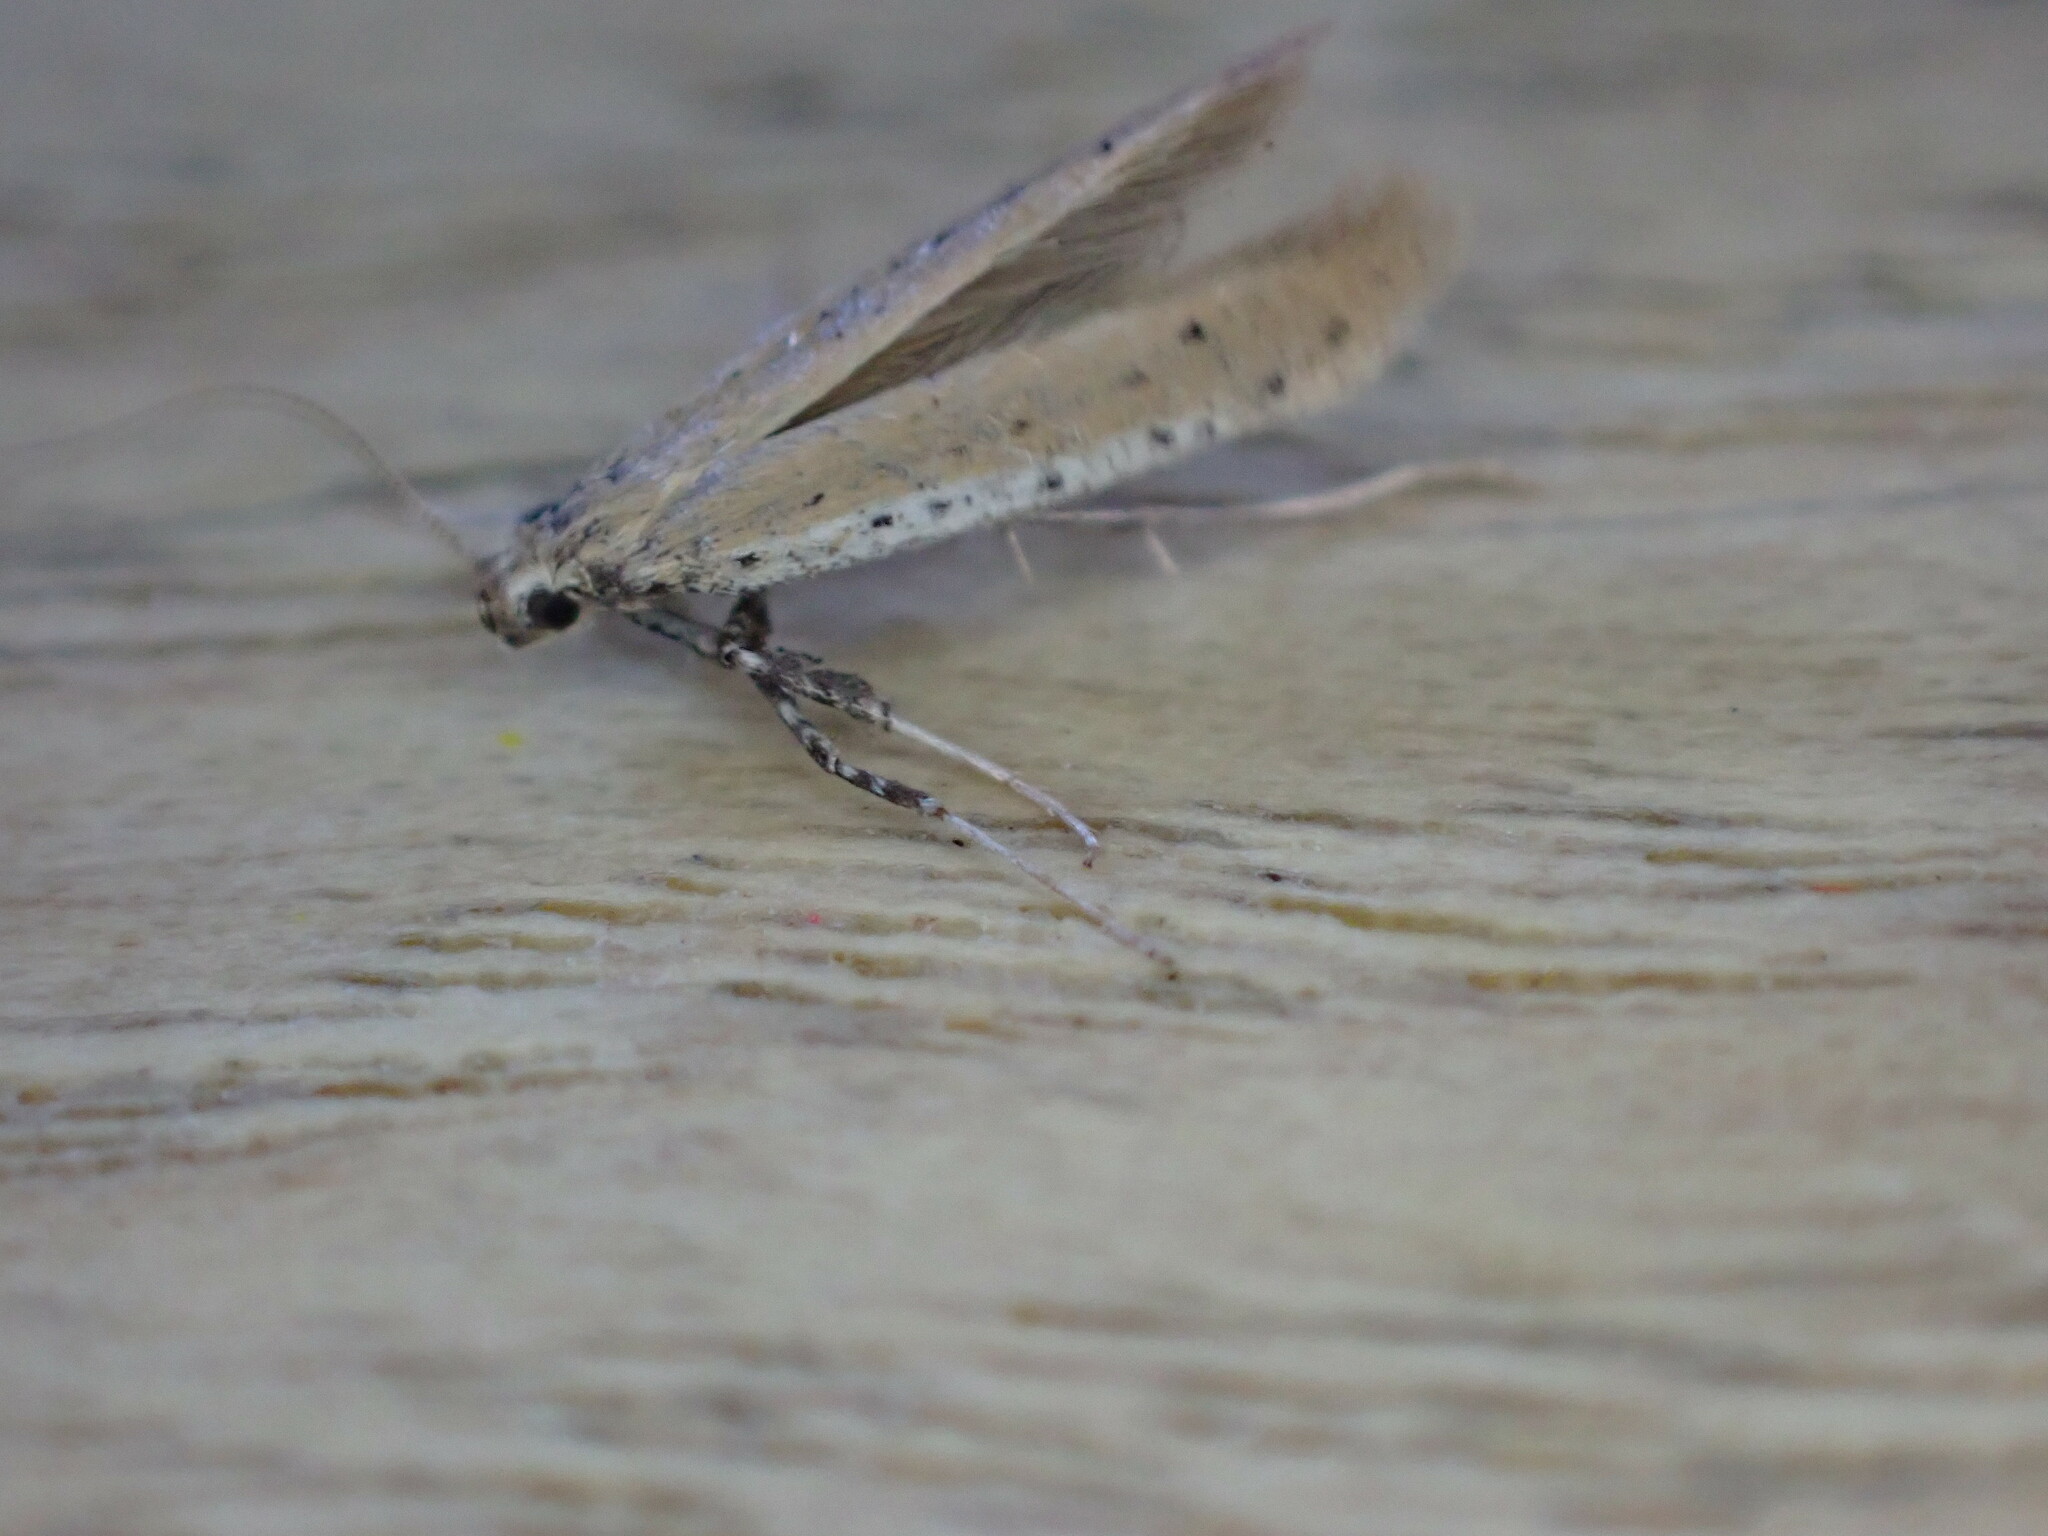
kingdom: Animalia
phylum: Arthropoda
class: Insecta
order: Lepidoptera
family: Gracillariidae
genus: Aspilapteryx
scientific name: Aspilapteryx tringipennella
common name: Ribwort slender
